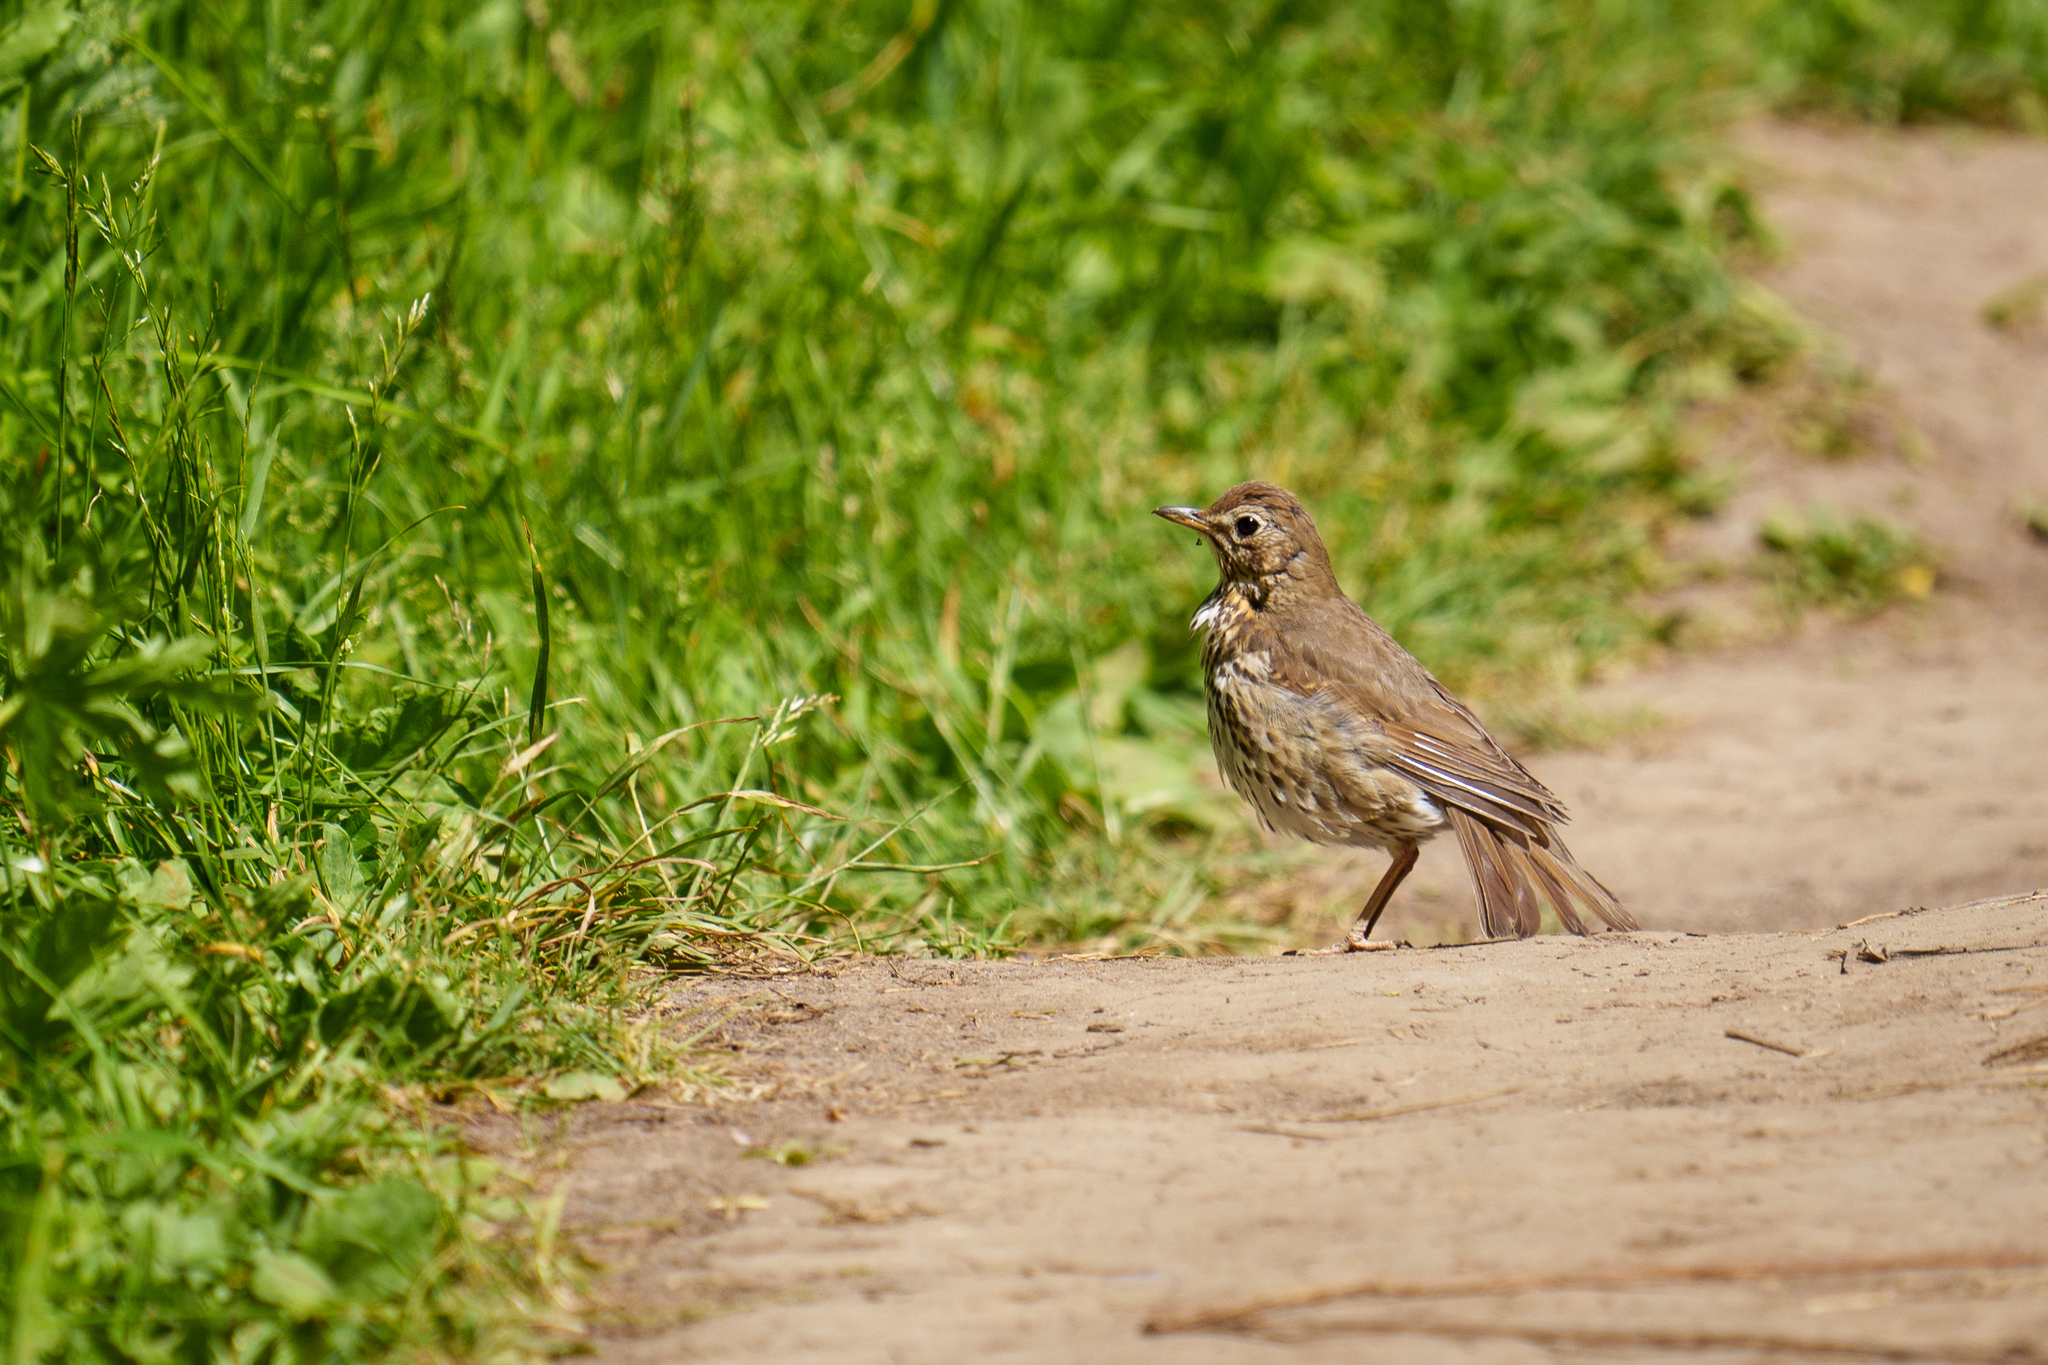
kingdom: Animalia
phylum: Chordata
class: Aves
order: Passeriformes
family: Turdidae
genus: Turdus
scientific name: Turdus philomelos
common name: Song thrush
